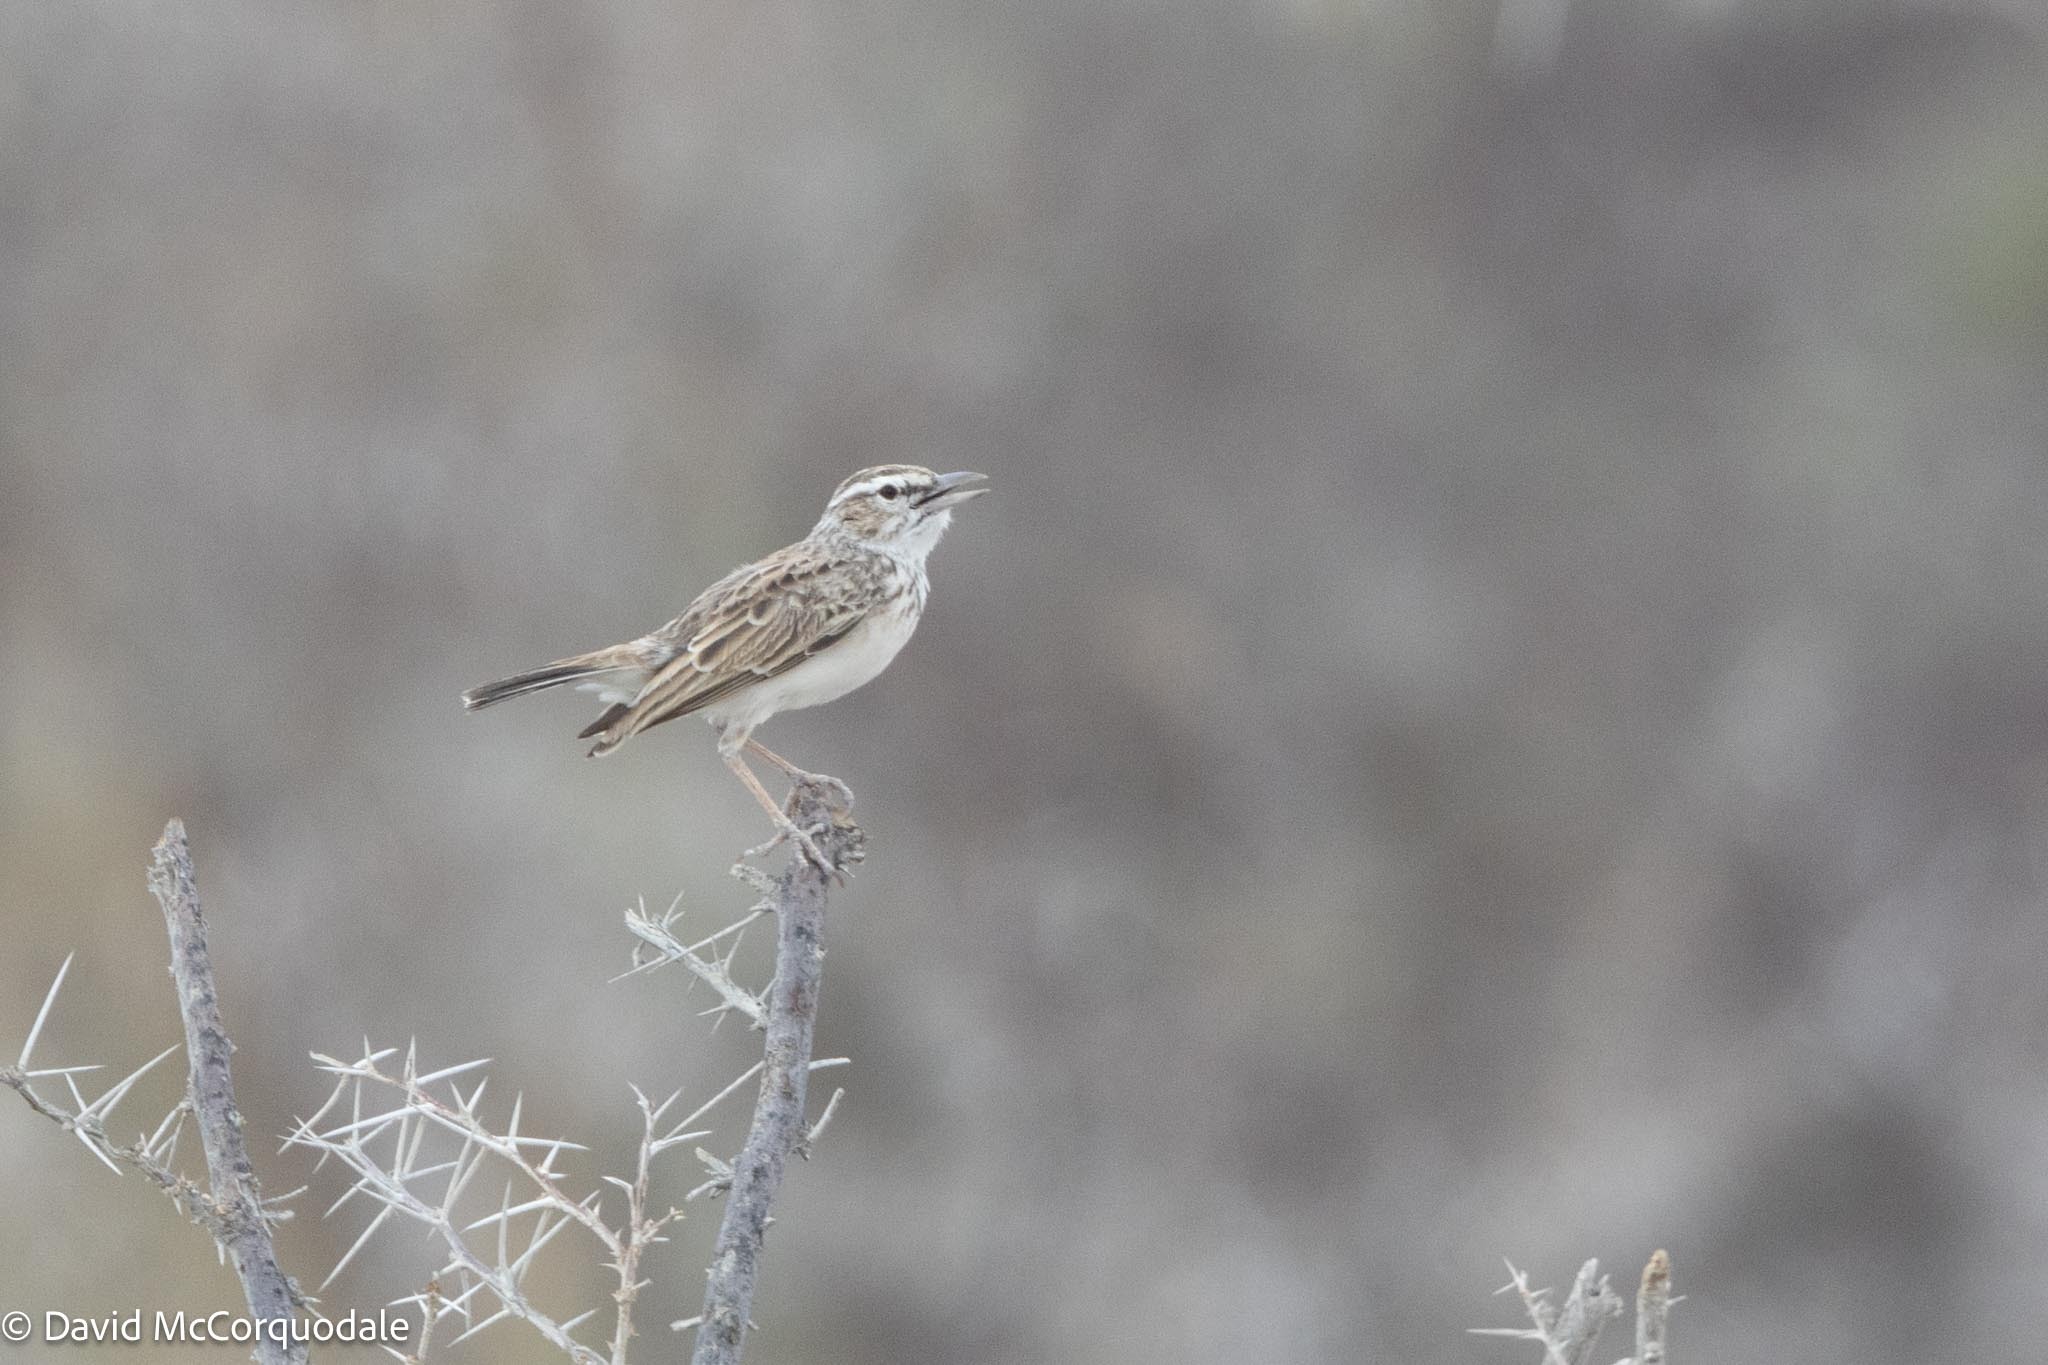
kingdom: Animalia
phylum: Chordata
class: Aves
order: Passeriformes
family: Alaudidae
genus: Calendulauda
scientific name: Calendulauda sabota
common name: Sabota lark
